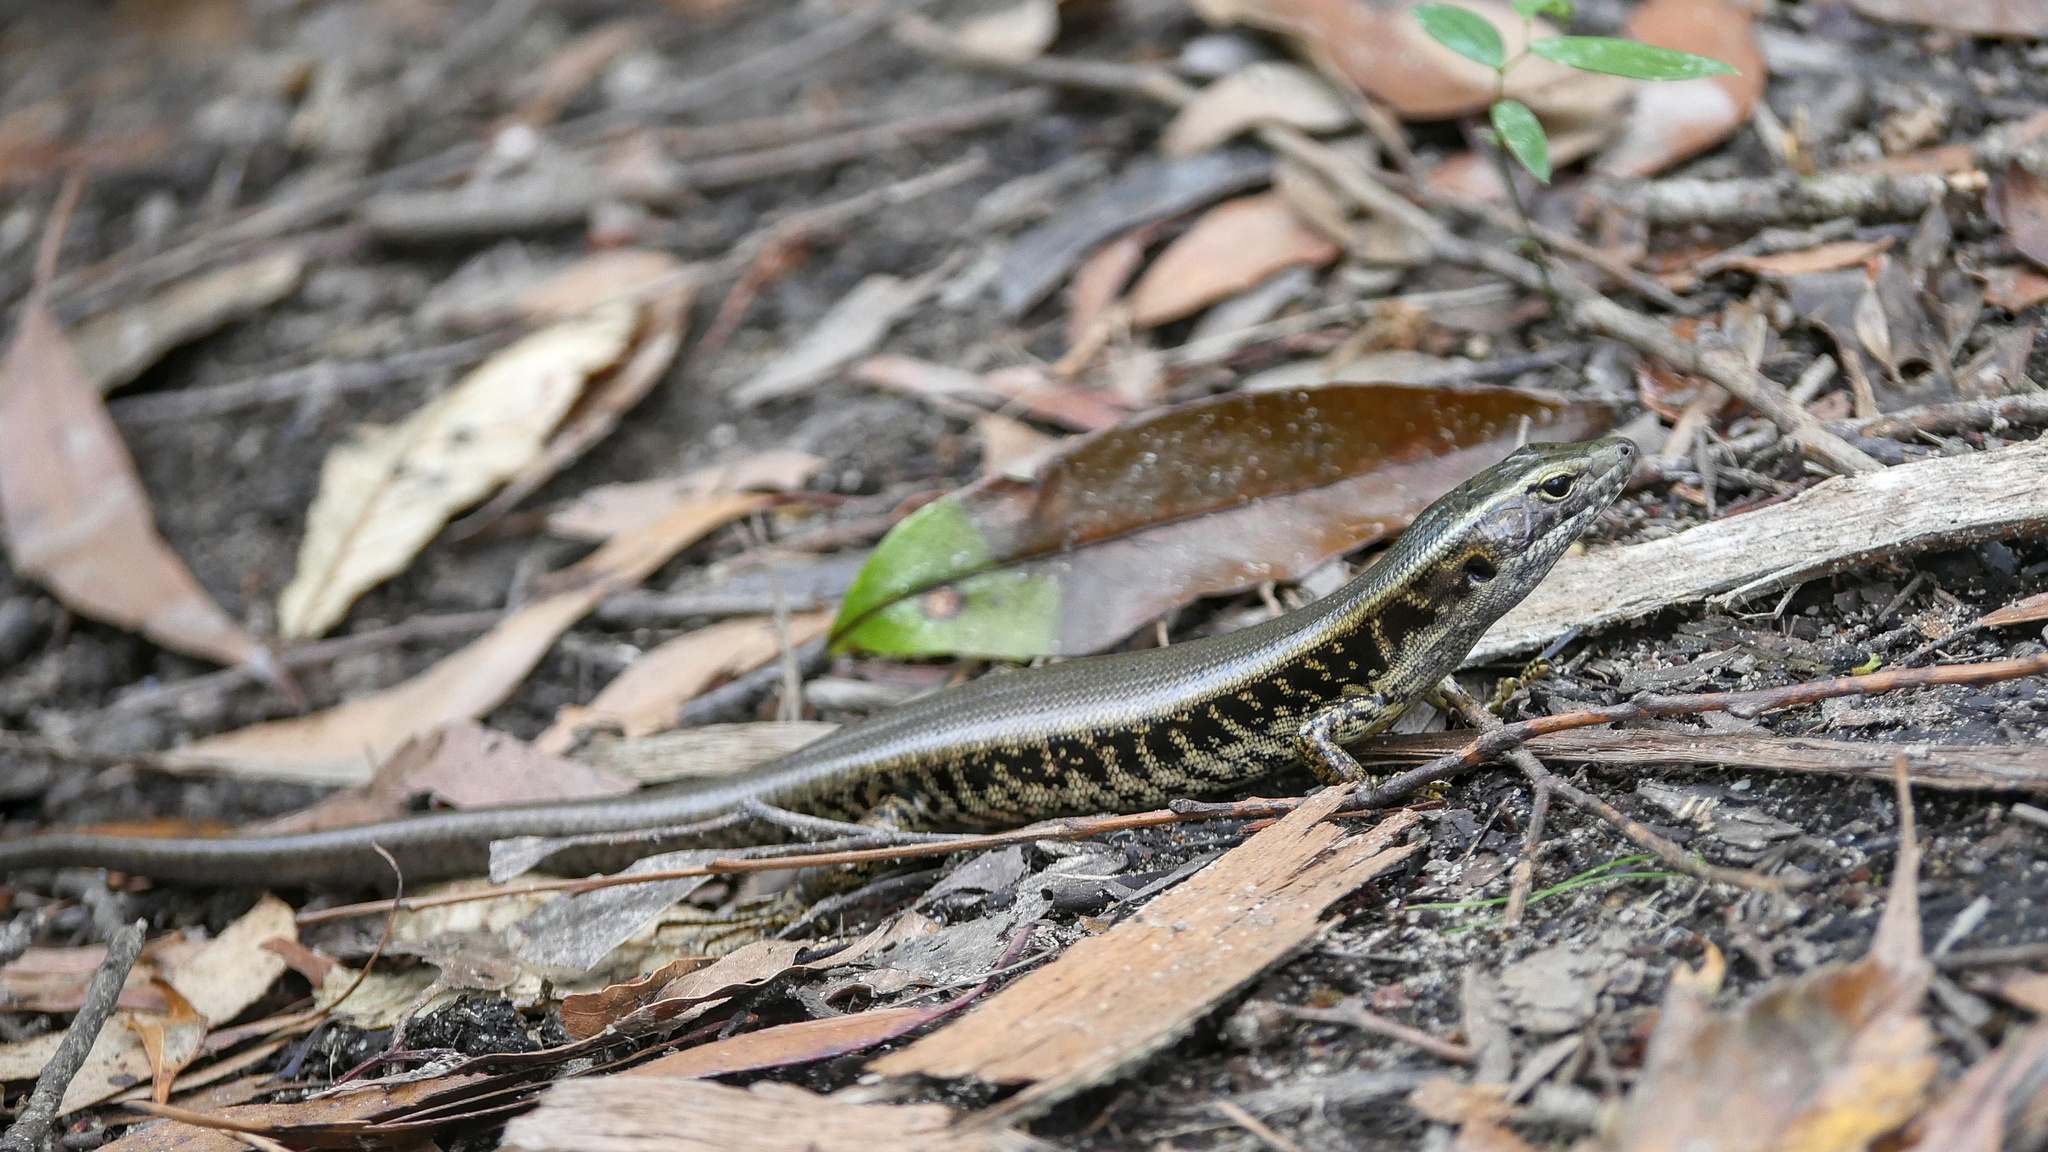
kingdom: Animalia
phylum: Chordata
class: Squamata
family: Scincidae
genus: Eulamprus
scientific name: Eulamprus quoyii
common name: Eastern water skink
